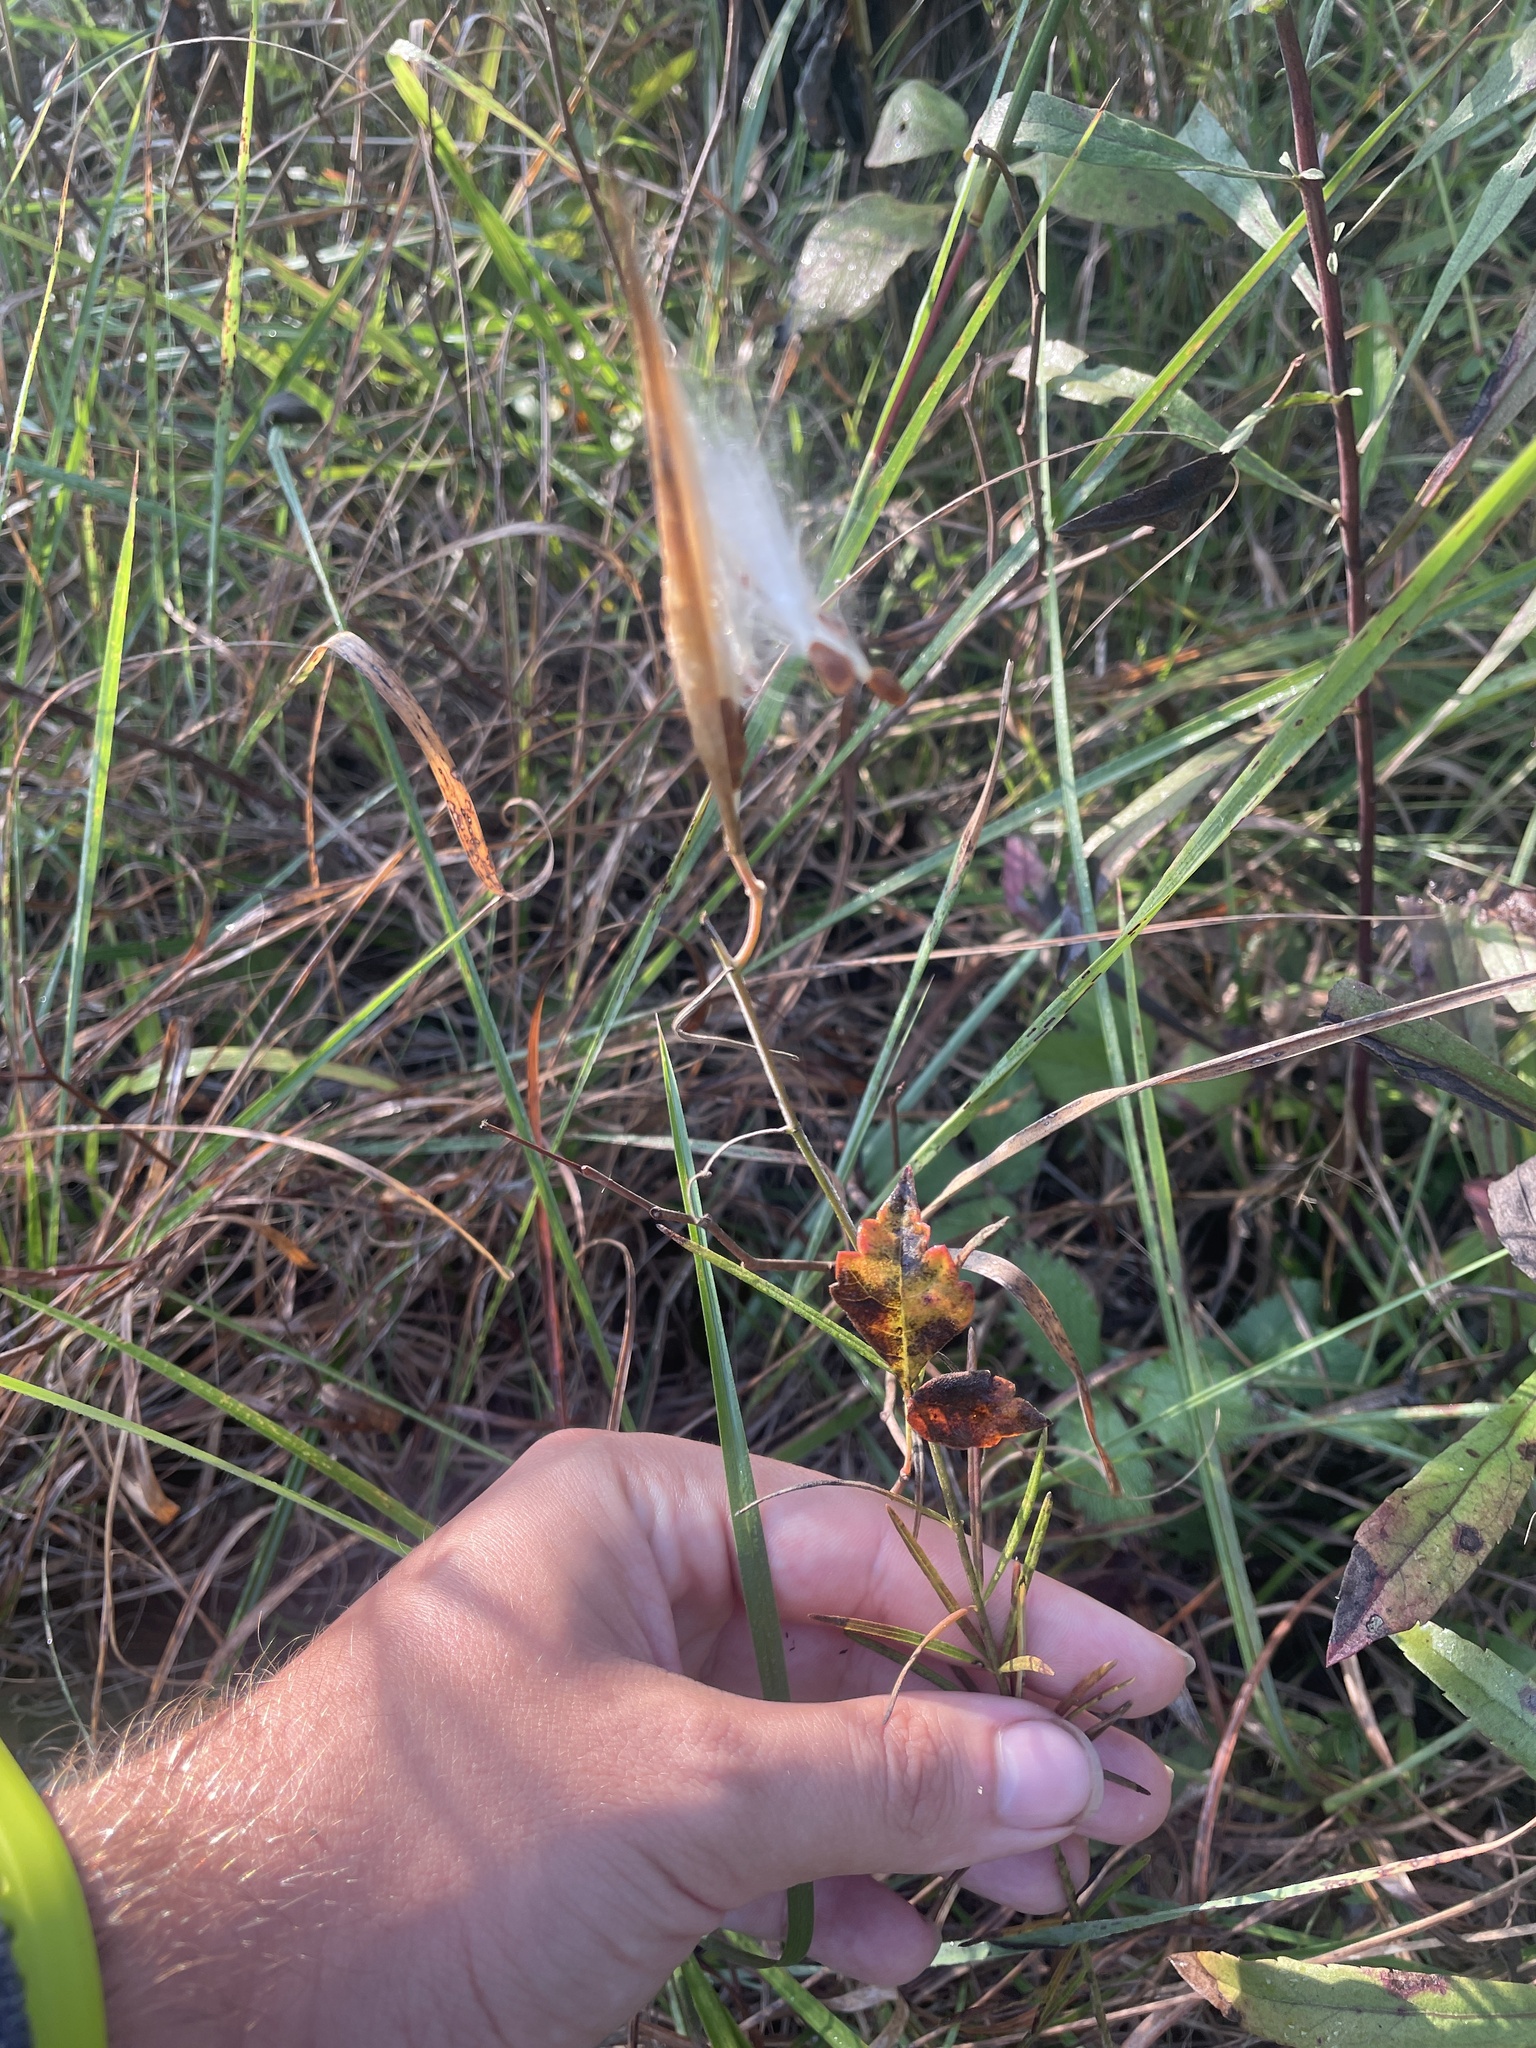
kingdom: Plantae
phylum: Tracheophyta
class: Magnoliopsida
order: Gentianales
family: Apocynaceae
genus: Asclepias
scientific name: Asclepias verticillata
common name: Eastern whorled milkweed
